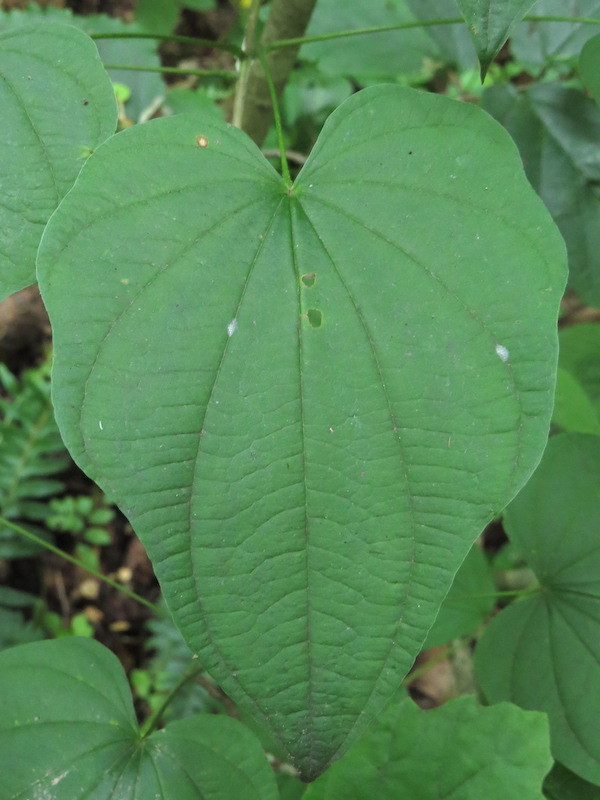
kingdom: Plantae
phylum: Tracheophyta
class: Liliopsida
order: Dioscoreales
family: Dioscoreaceae
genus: Dioscorea
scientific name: Dioscorea villosa
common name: Wild yam
